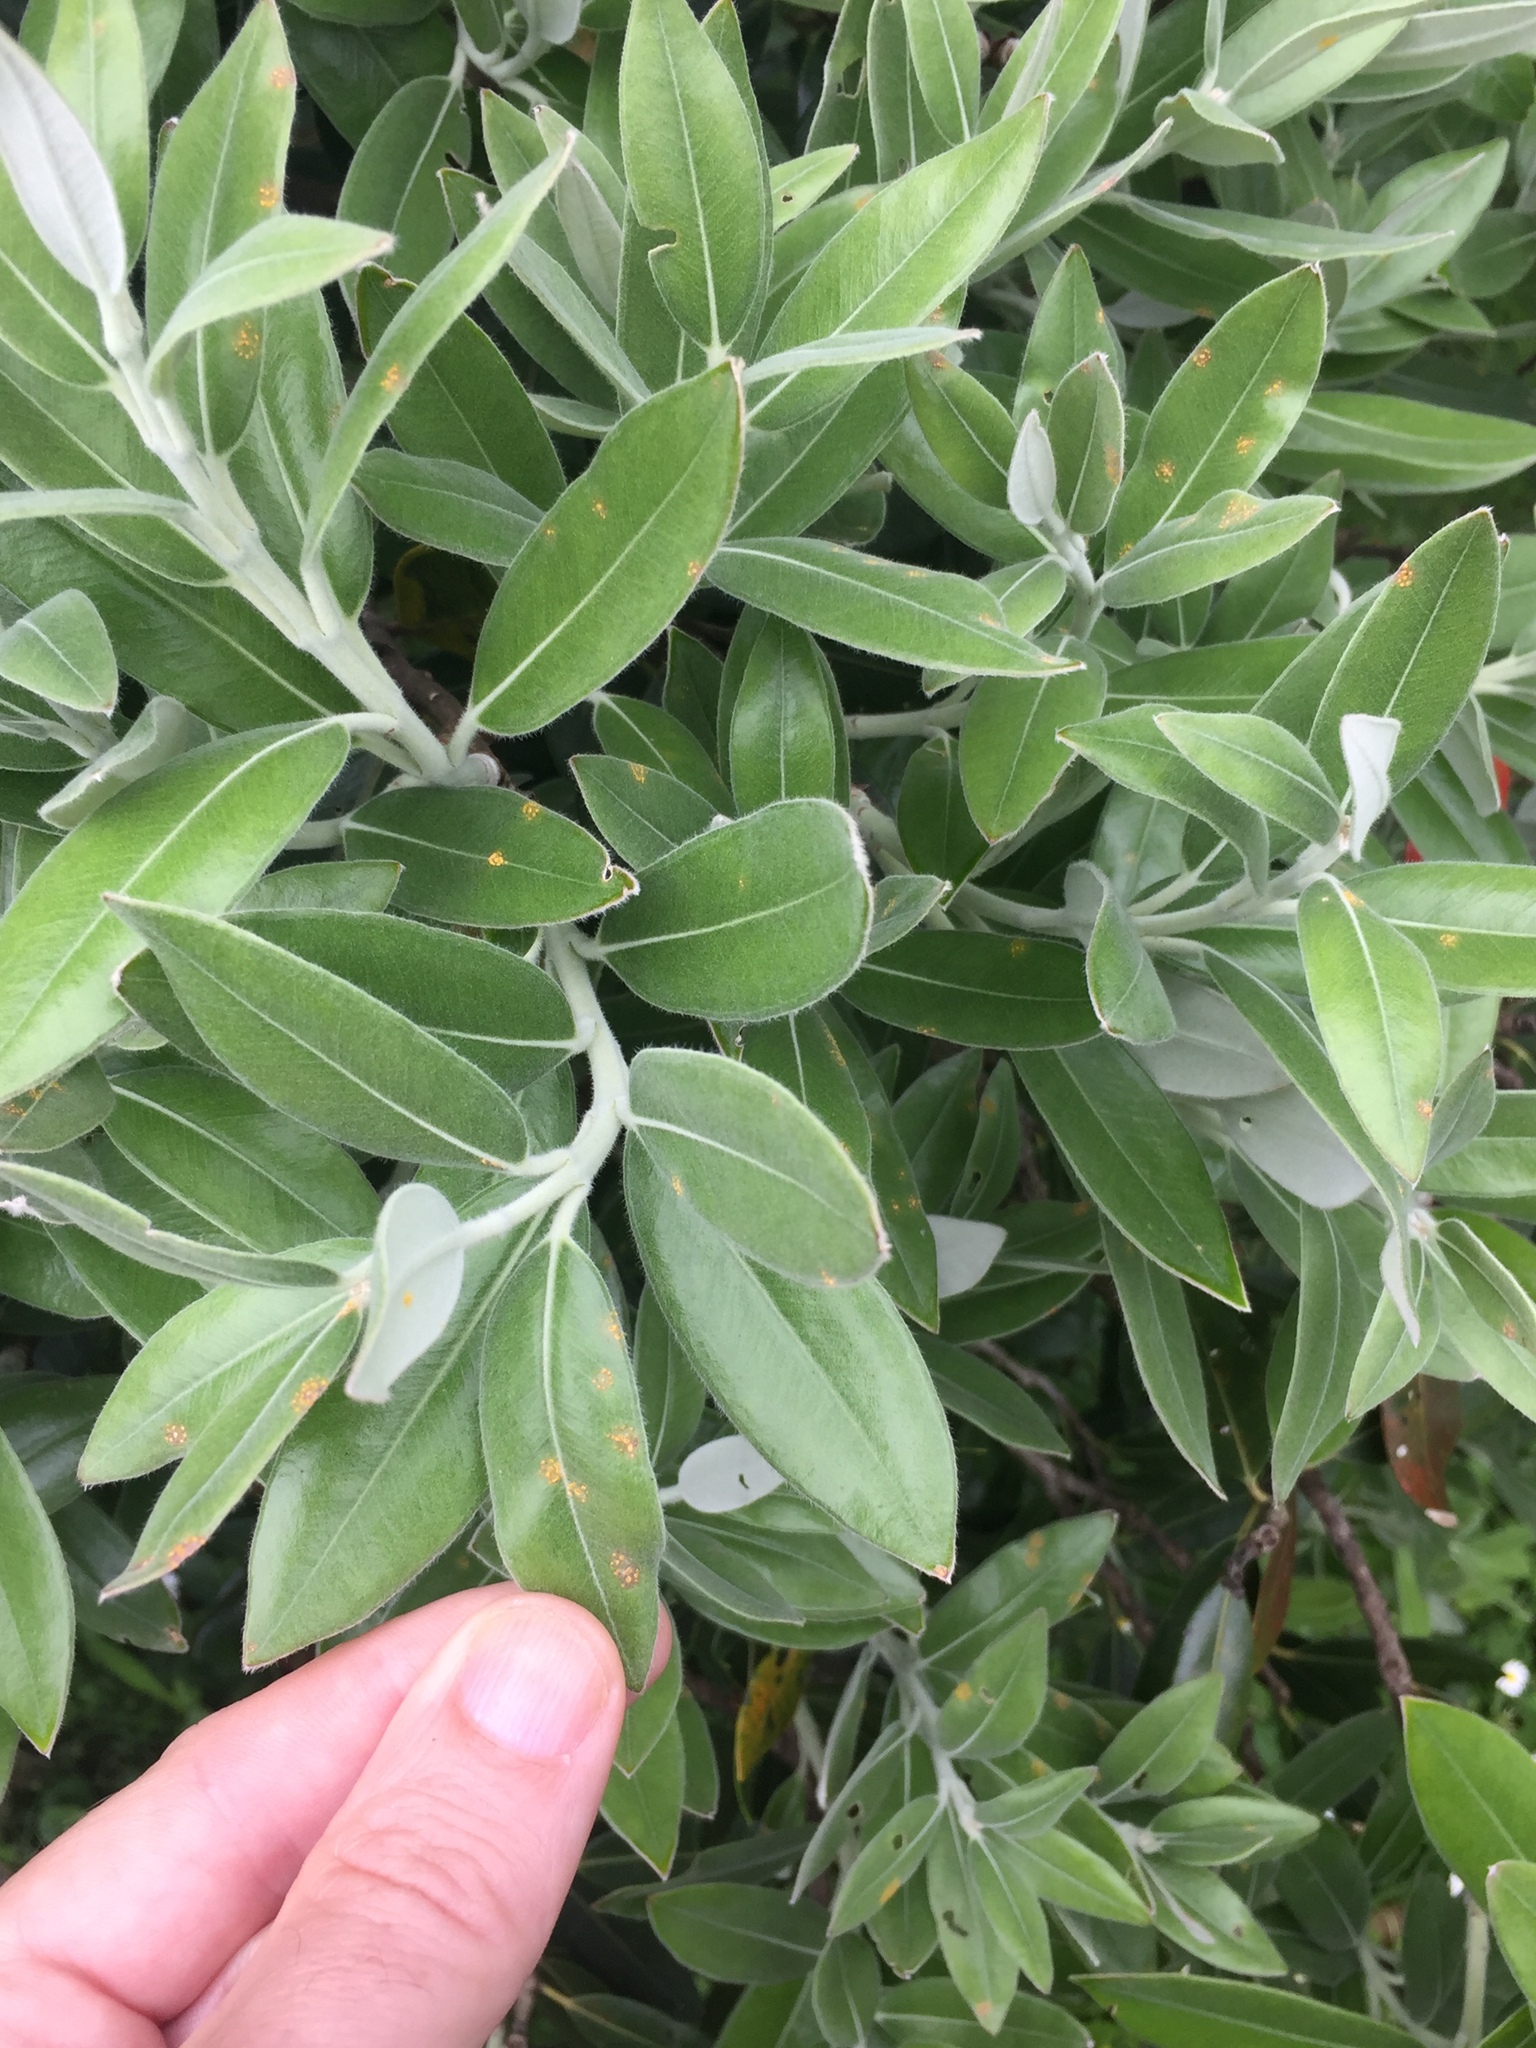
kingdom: Fungi
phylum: Basidiomycota
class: Pucciniomycetes
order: Pucciniales
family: Sphaerophragmiaceae
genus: Austropuccinia
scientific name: Austropuccinia psidii
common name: Myrtle rust
